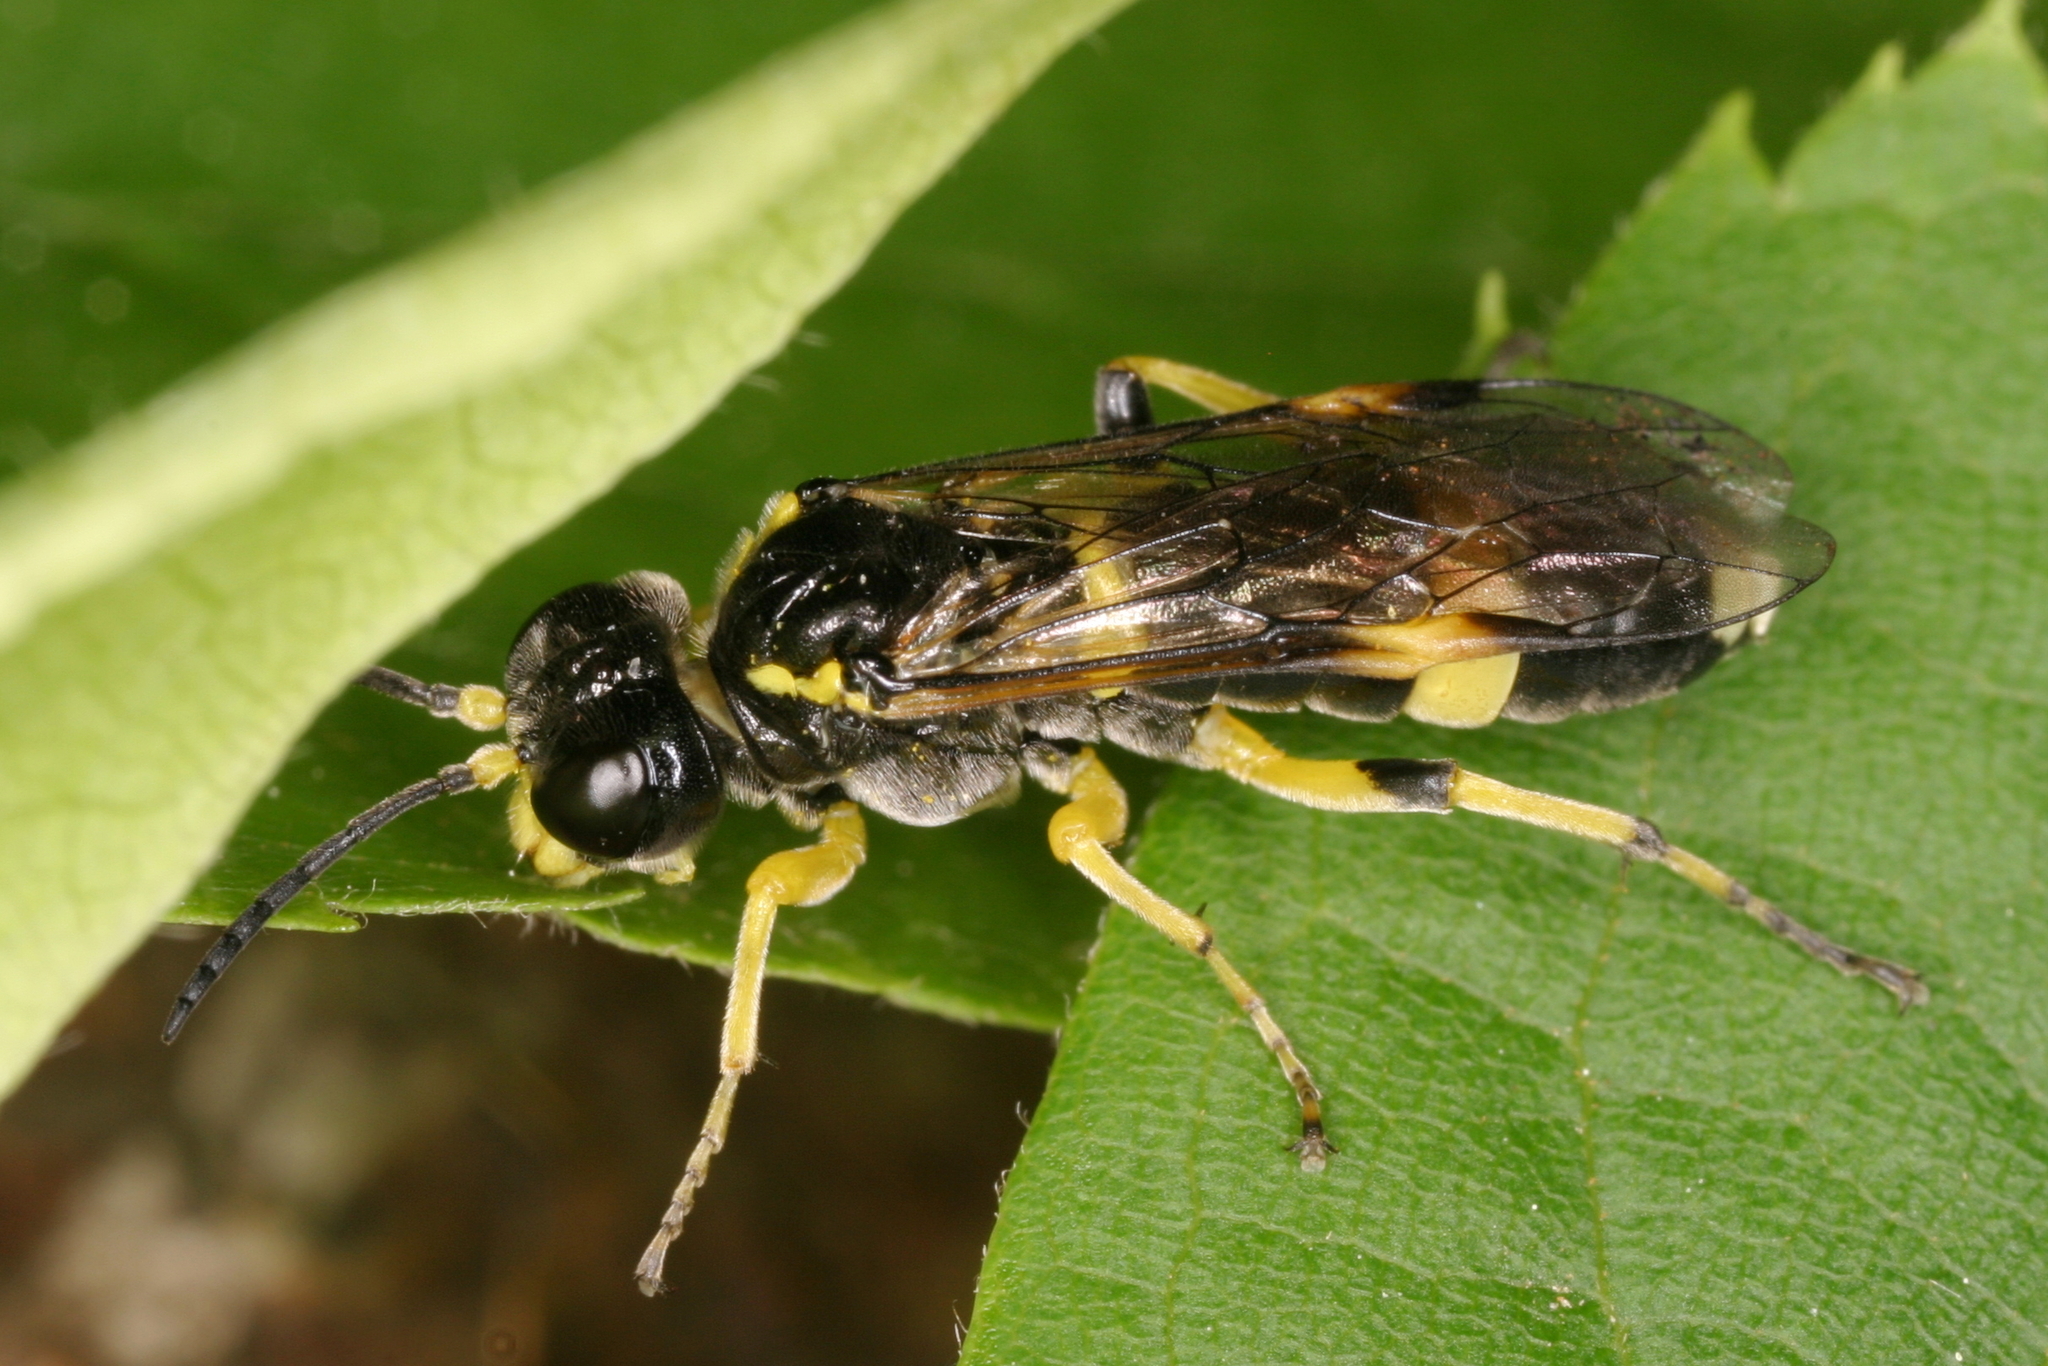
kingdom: Animalia
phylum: Arthropoda
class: Insecta
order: Hymenoptera
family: Tenthredinidae
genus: Tenthredo
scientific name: Tenthredo zonula
